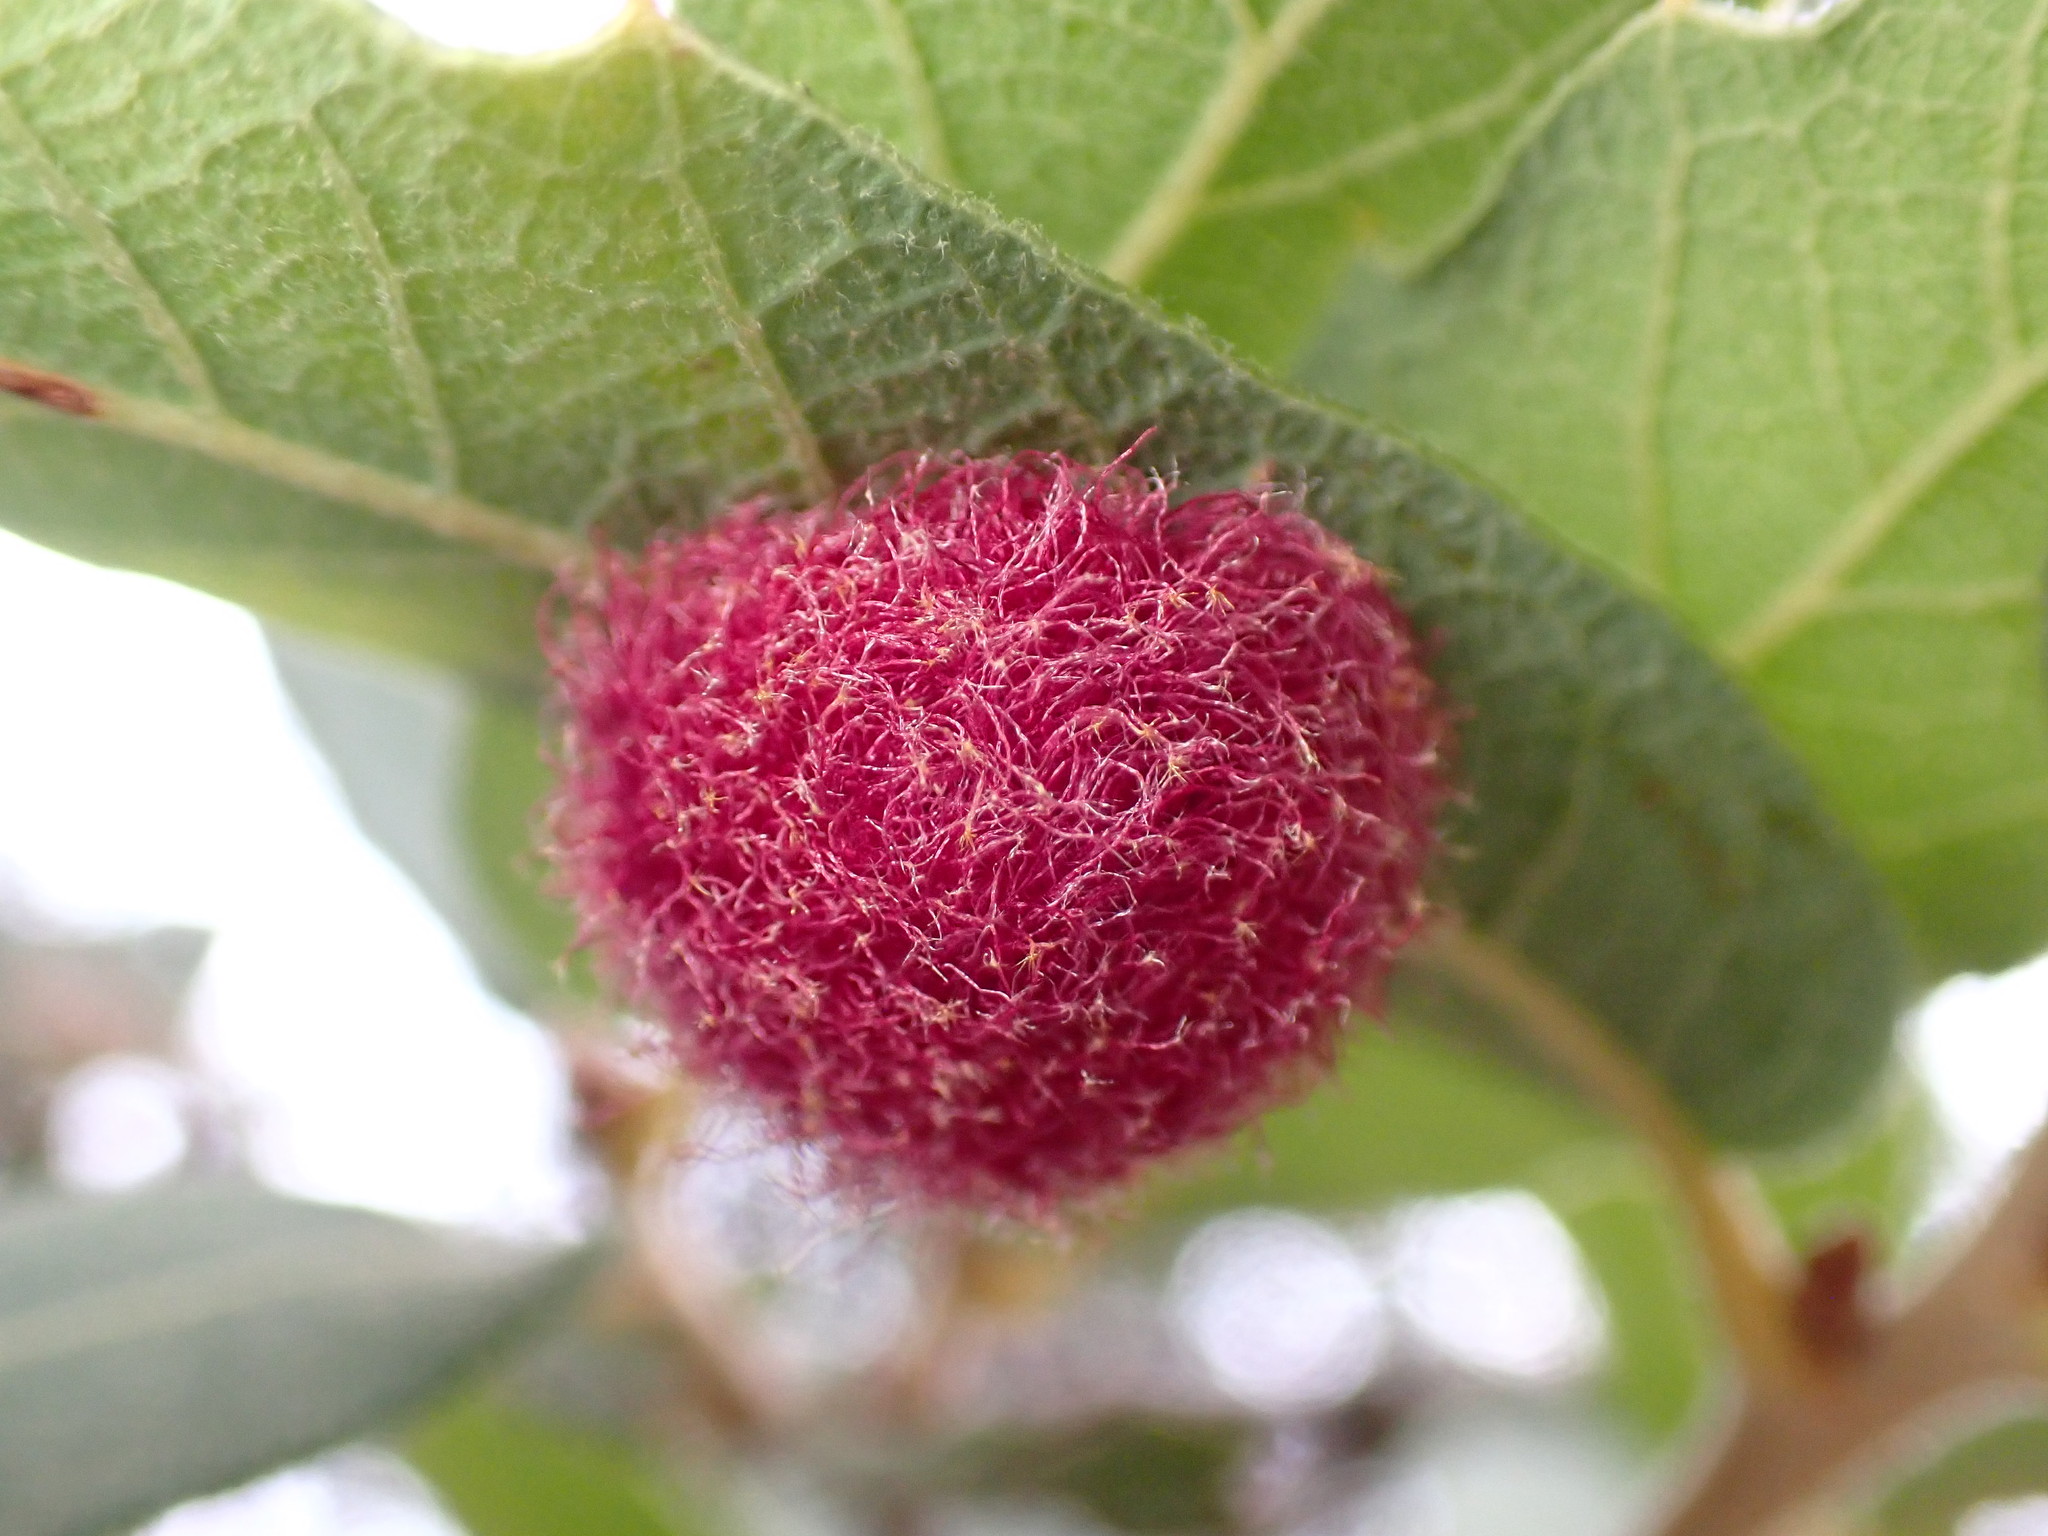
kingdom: Animalia
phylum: Arthropoda
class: Insecta
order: Hymenoptera
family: Cynipidae
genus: Cynips
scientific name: Cynips
